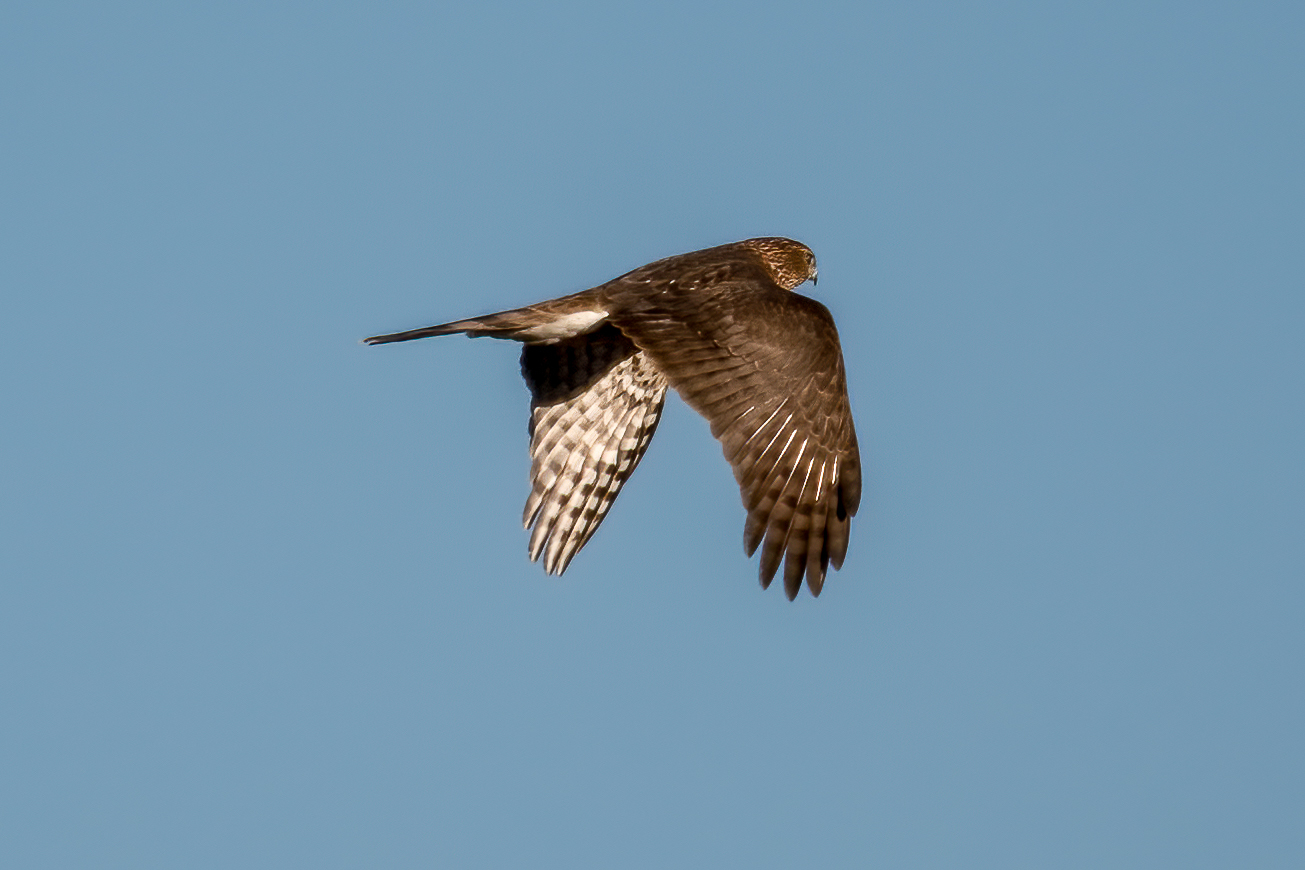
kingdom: Animalia
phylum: Chordata
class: Aves
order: Accipitriformes
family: Accipitridae
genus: Accipiter
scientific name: Accipiter cooperii
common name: Cooper's hawk
